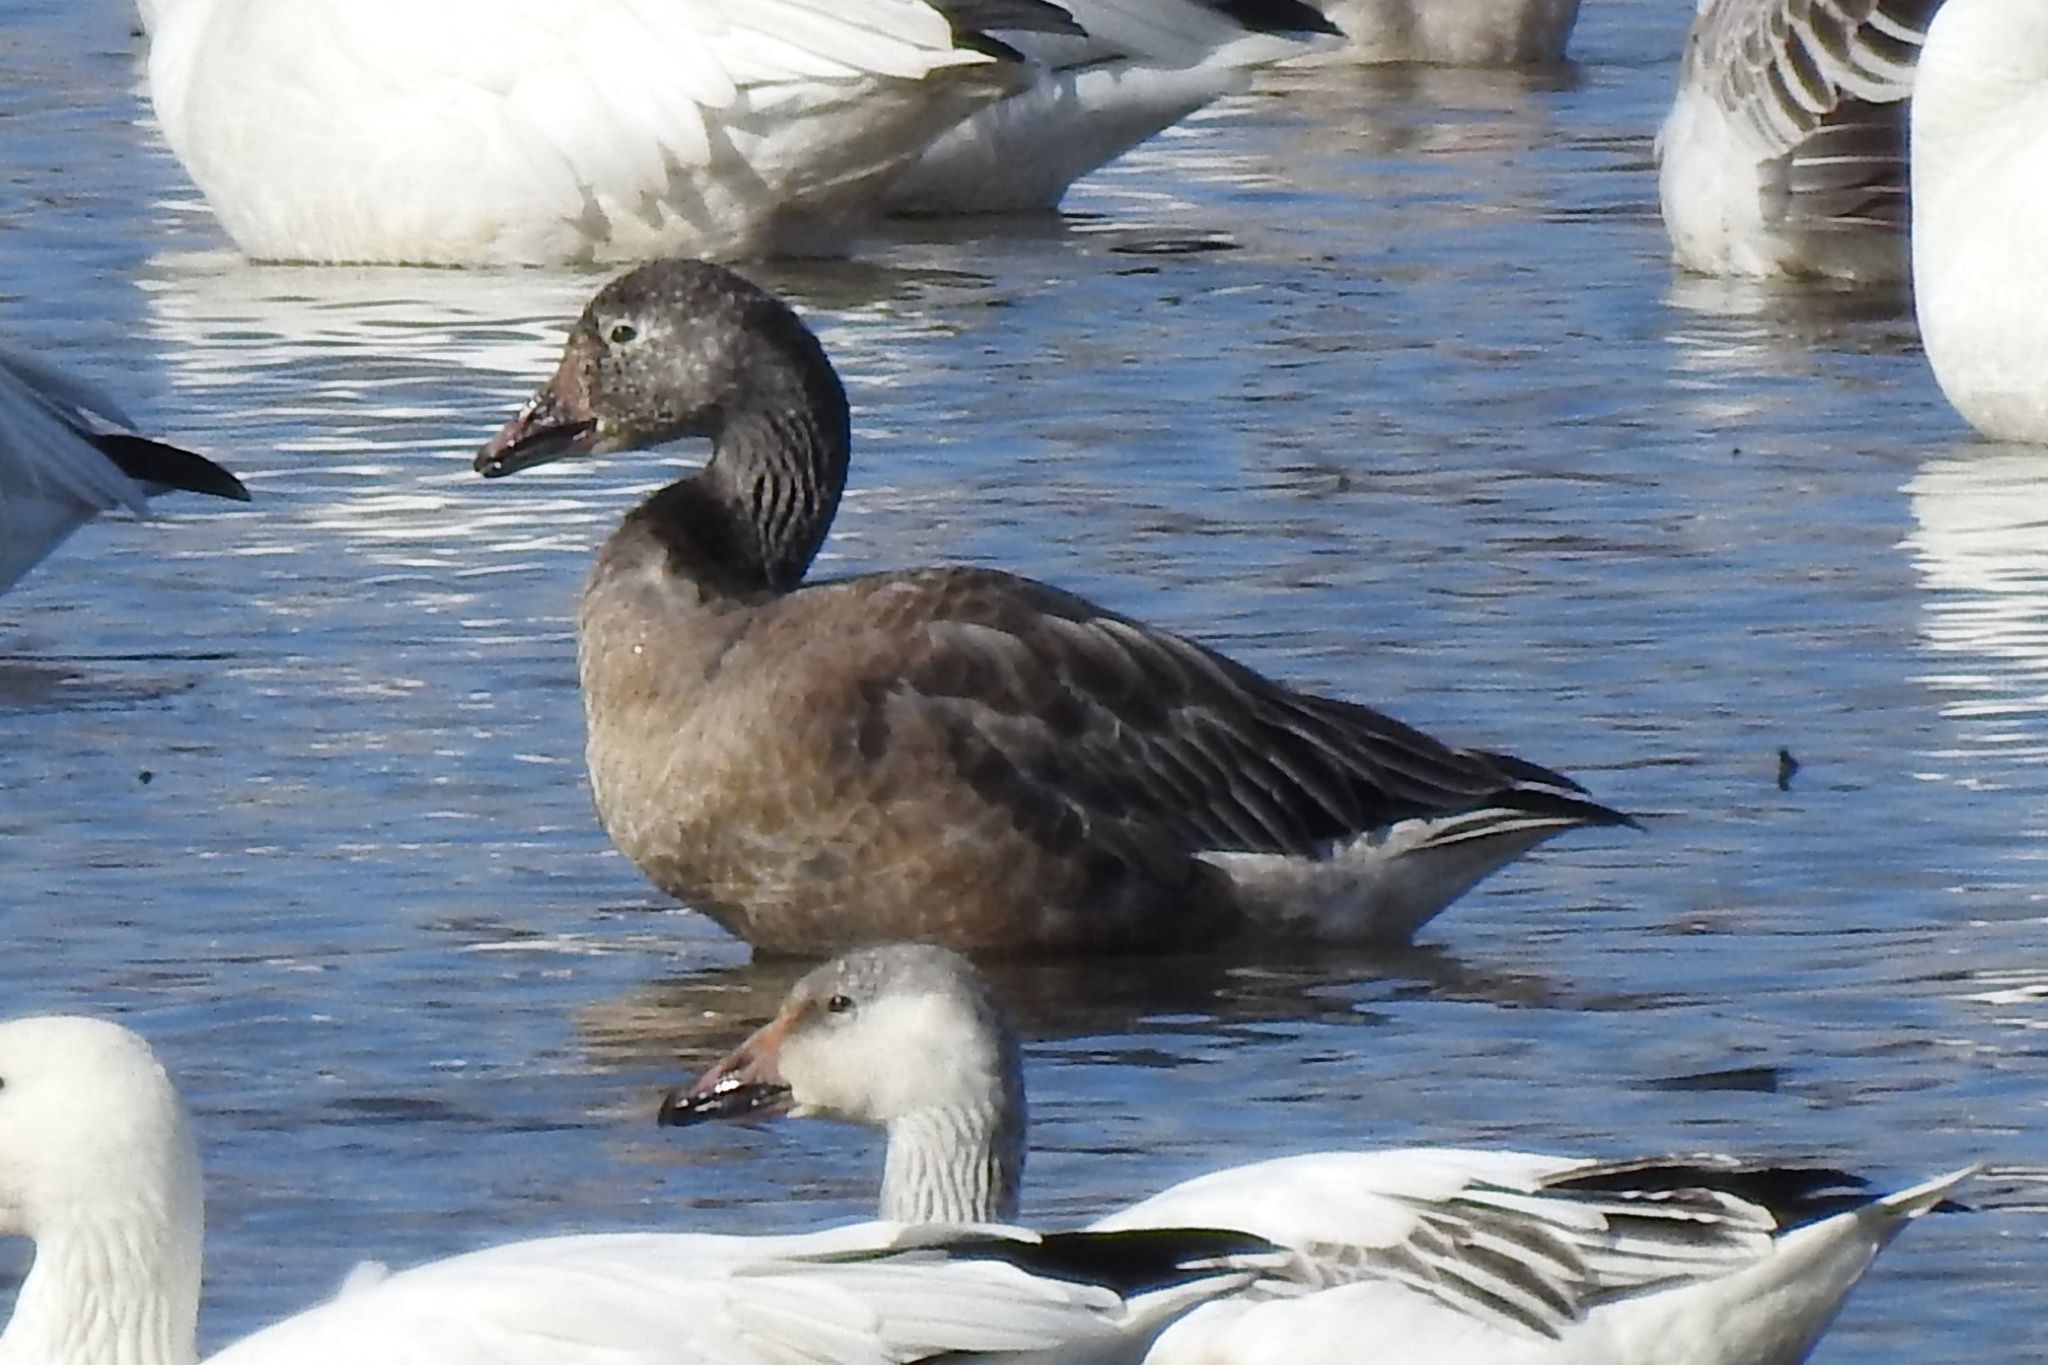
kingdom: Animalia
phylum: Chordata
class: Aves
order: Anseriformes
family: Anatidae
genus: Anser
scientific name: Anser caerulescens
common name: Snow goose
